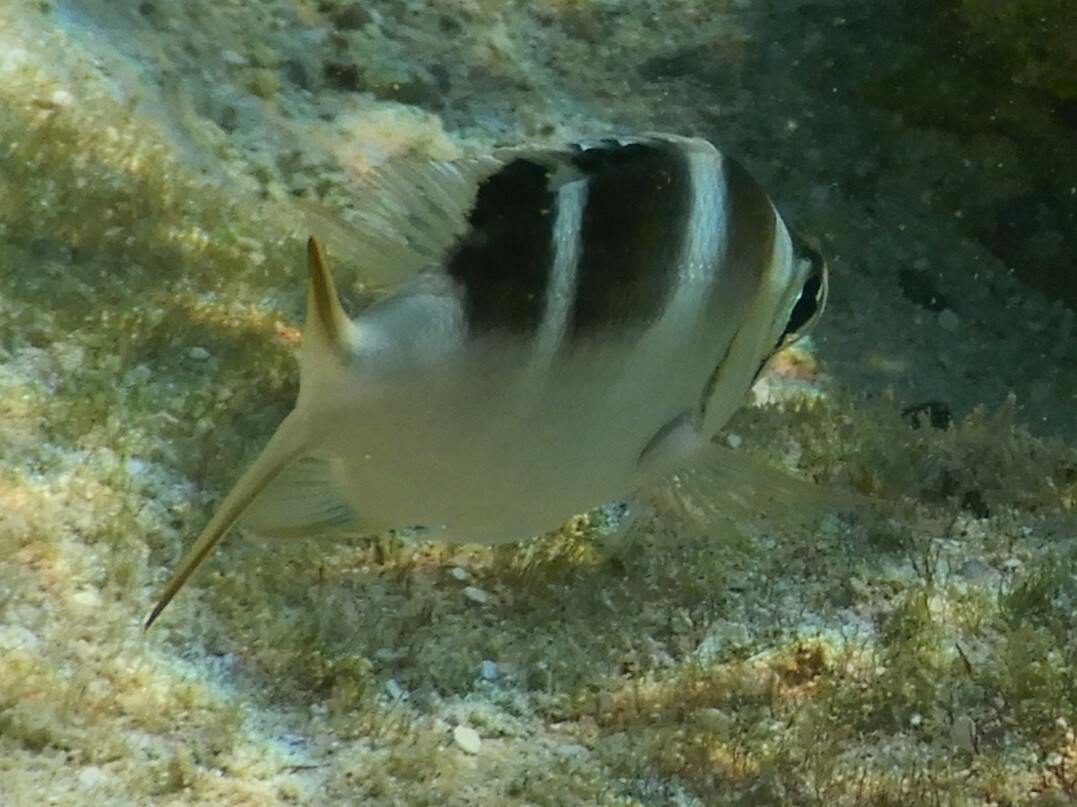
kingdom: Animalia
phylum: Chordata
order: Perciformes
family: Lethrinidae
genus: Monotaxis
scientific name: Monotaxis grandoculis
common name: Bigeye emperor
